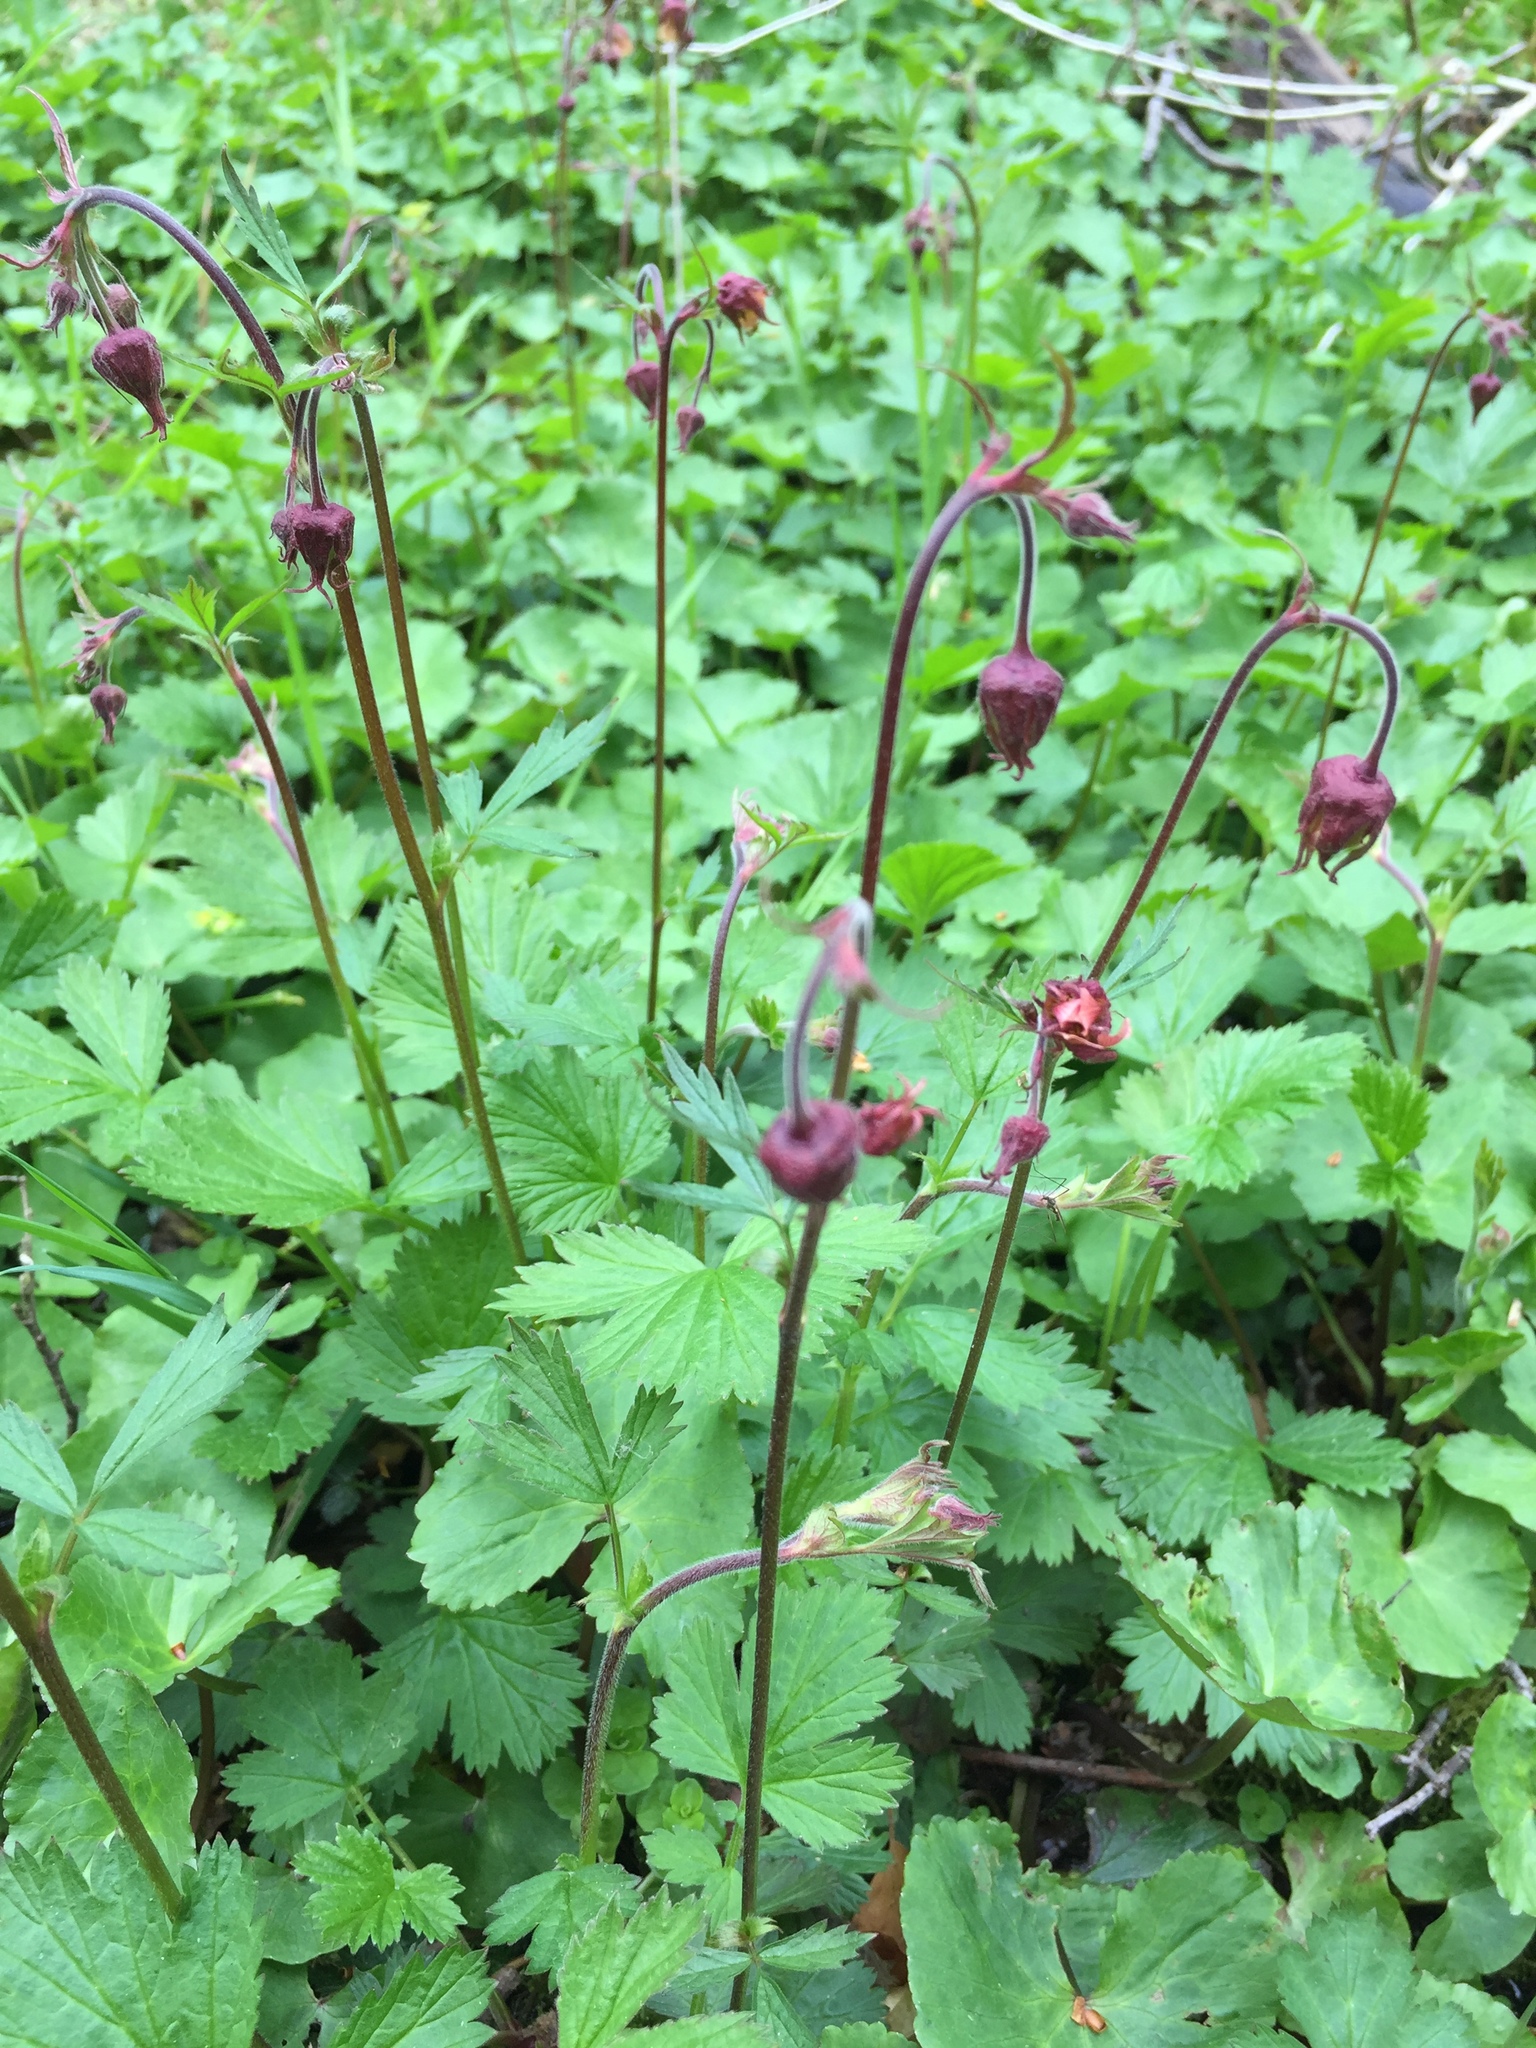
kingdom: Plantae
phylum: Tracheophyta
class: Magnoliopsida
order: Rosales
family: Rosaceae
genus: Geum
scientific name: Geum rivale
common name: Water avens
